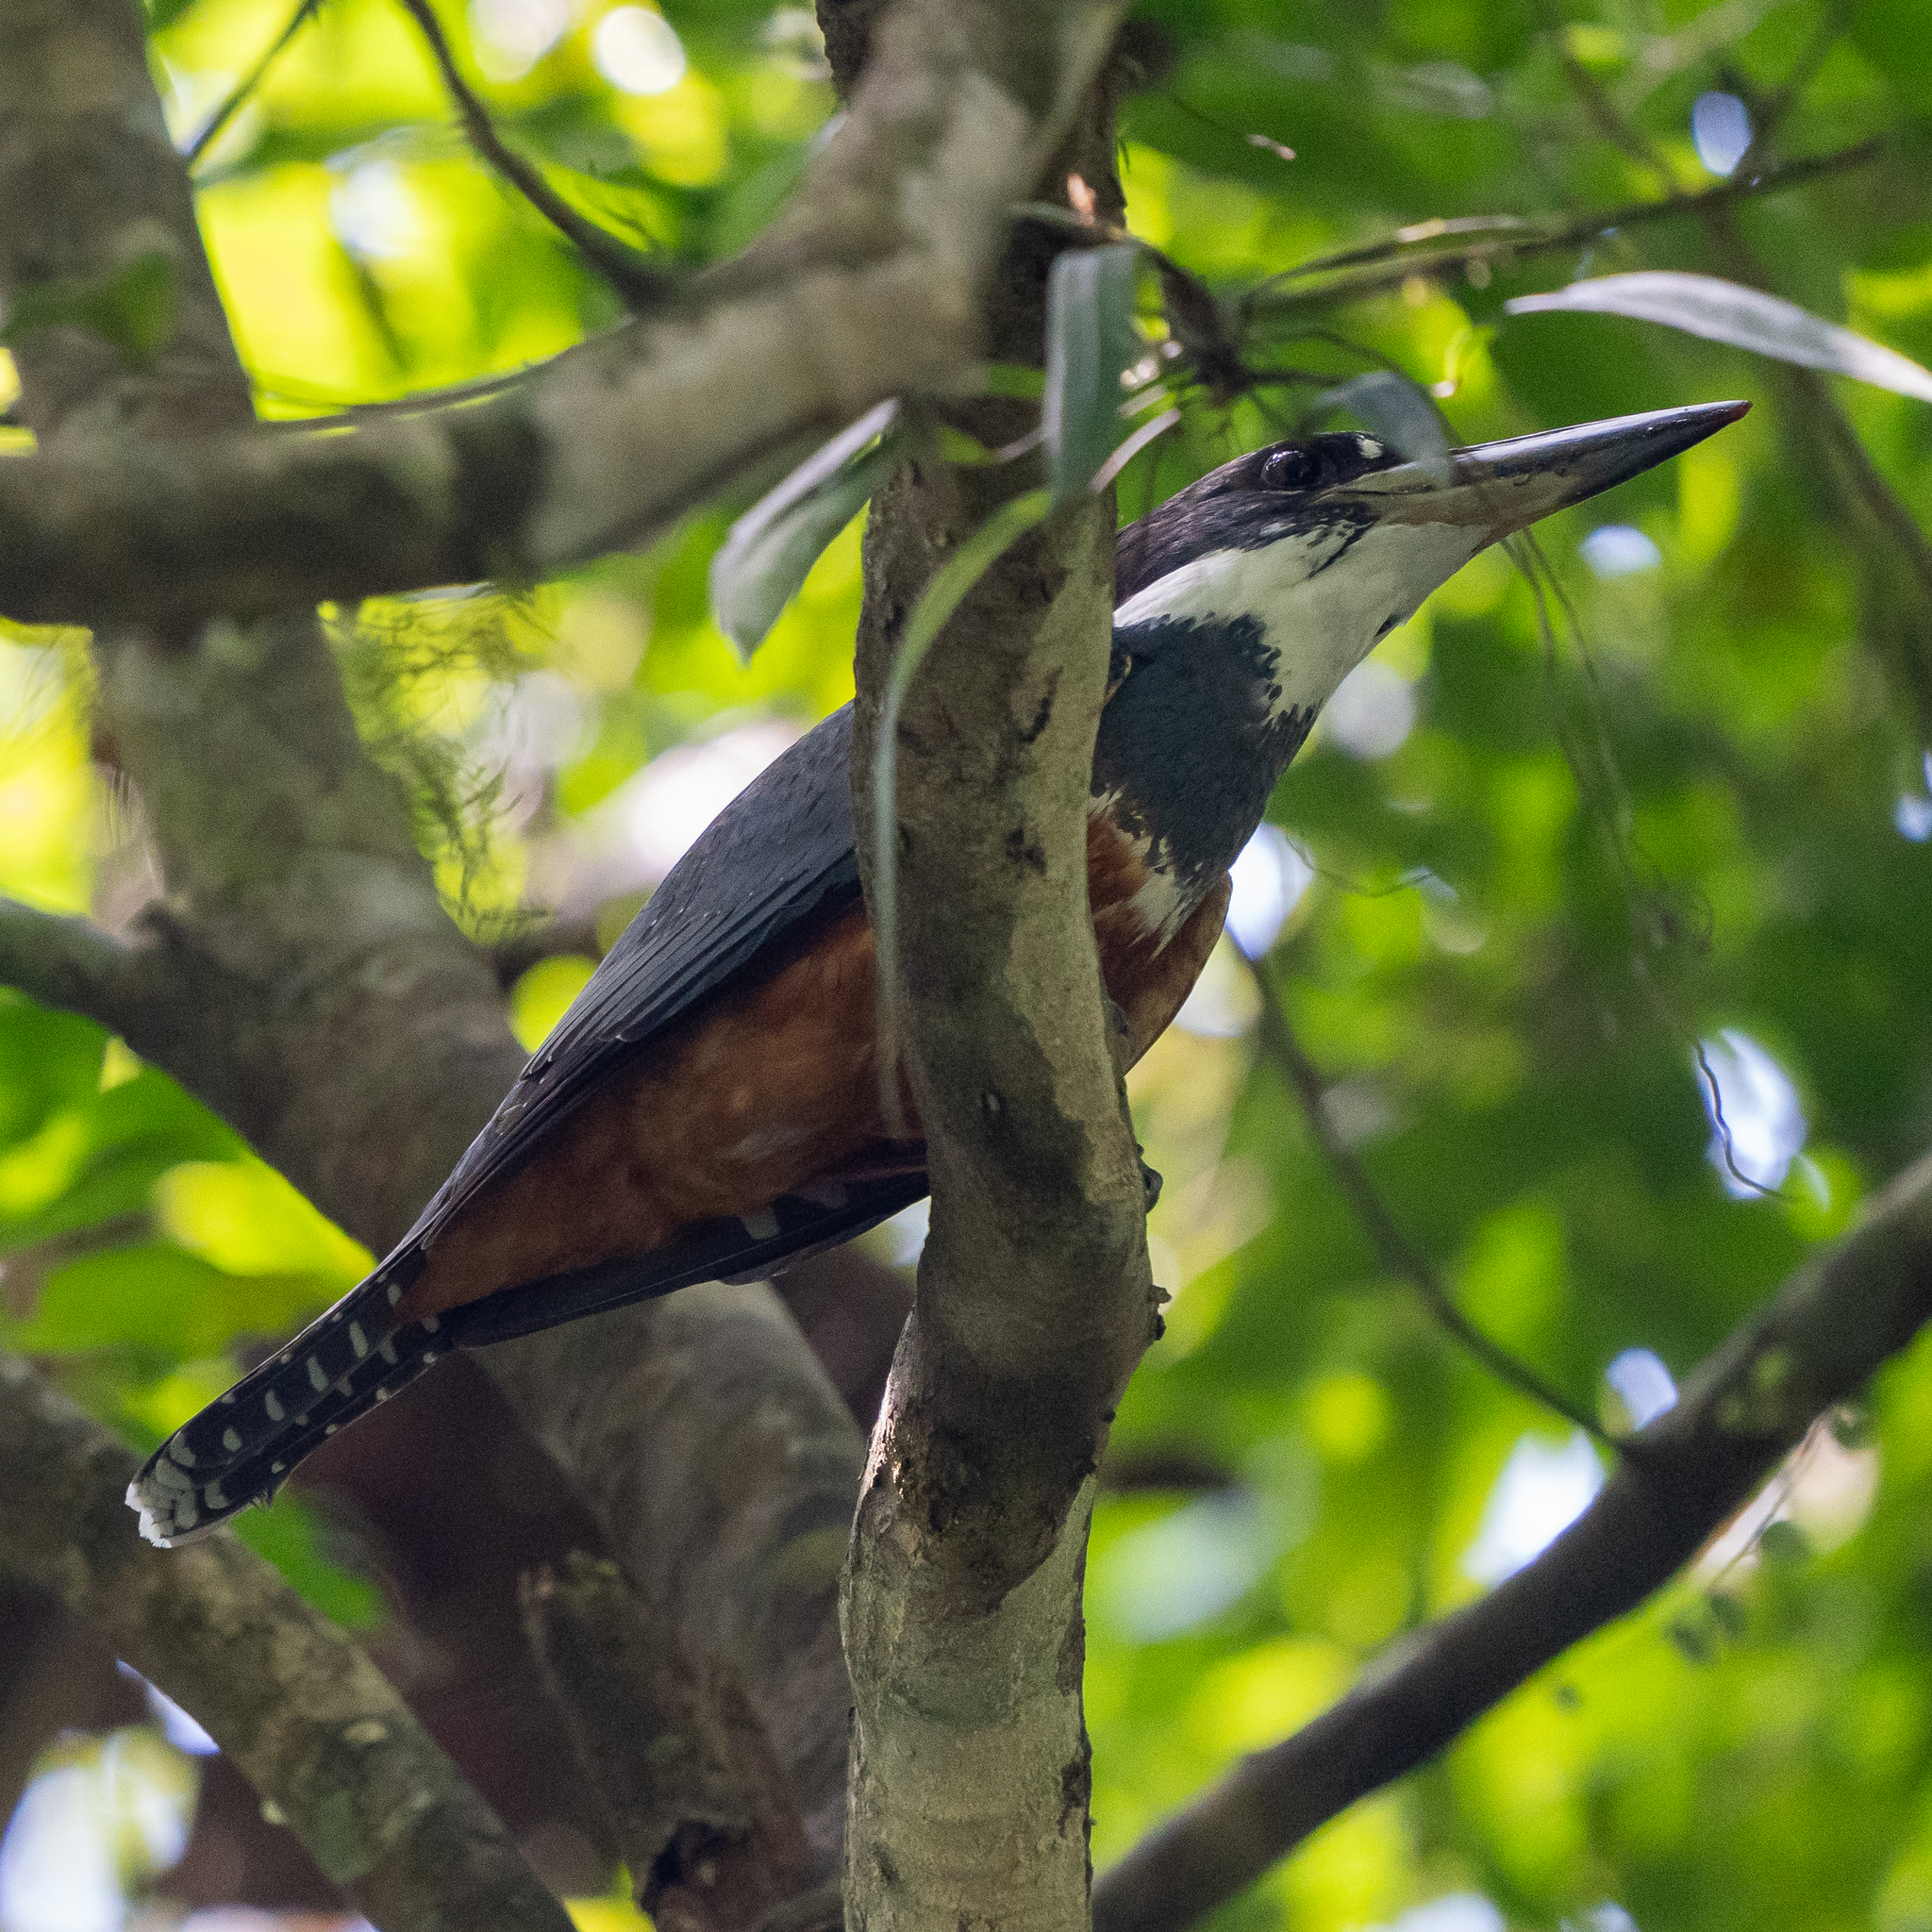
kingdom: Animalia
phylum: Chordata
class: Aves
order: Coraciiformes
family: Alcedinidae
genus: Megaceryle
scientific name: Megaceryle torquata
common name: Ringed kingfisher
